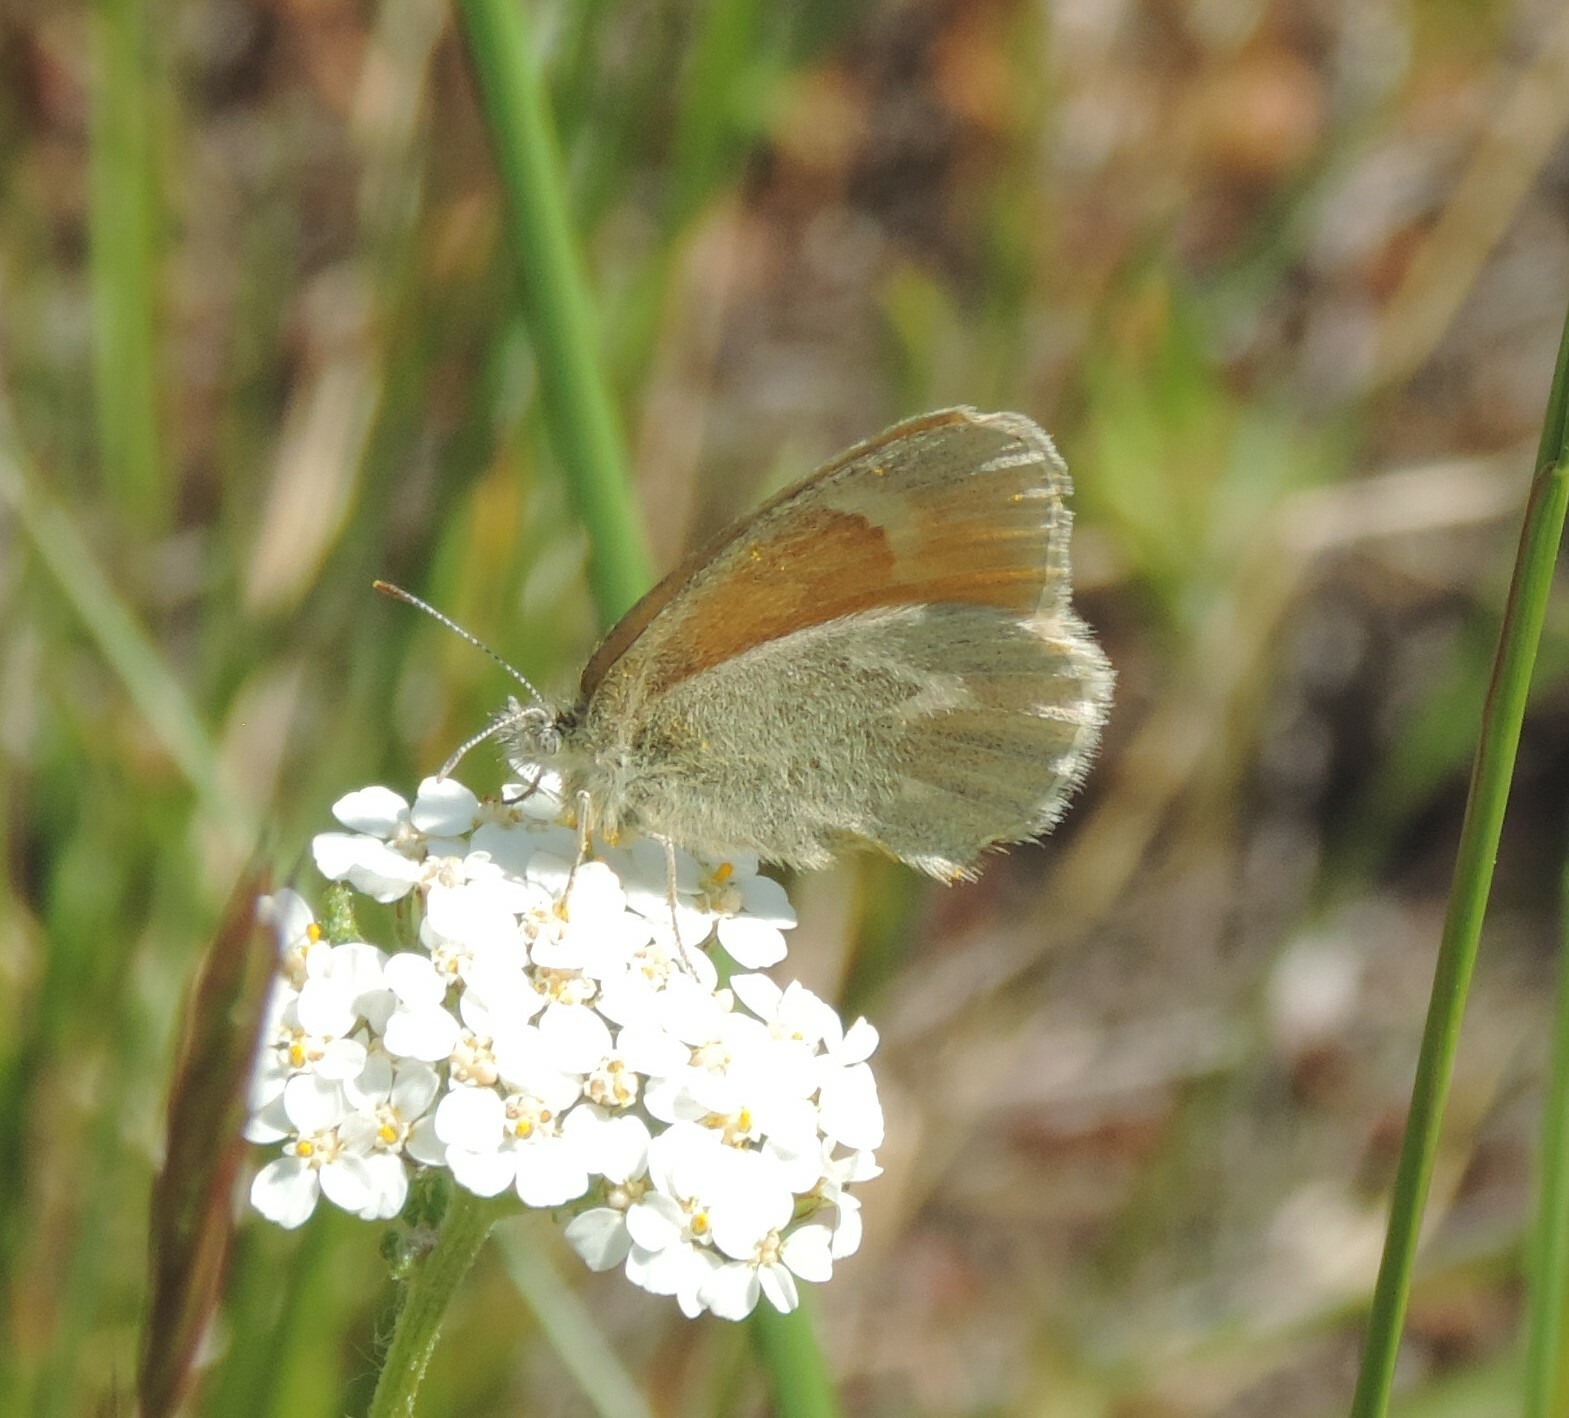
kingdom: Animalia
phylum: Arthropoda
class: Insecta
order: Lepidoptera
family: Nymphalidae
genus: Coenonympha
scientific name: Coenonympha california
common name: Common ringlet
